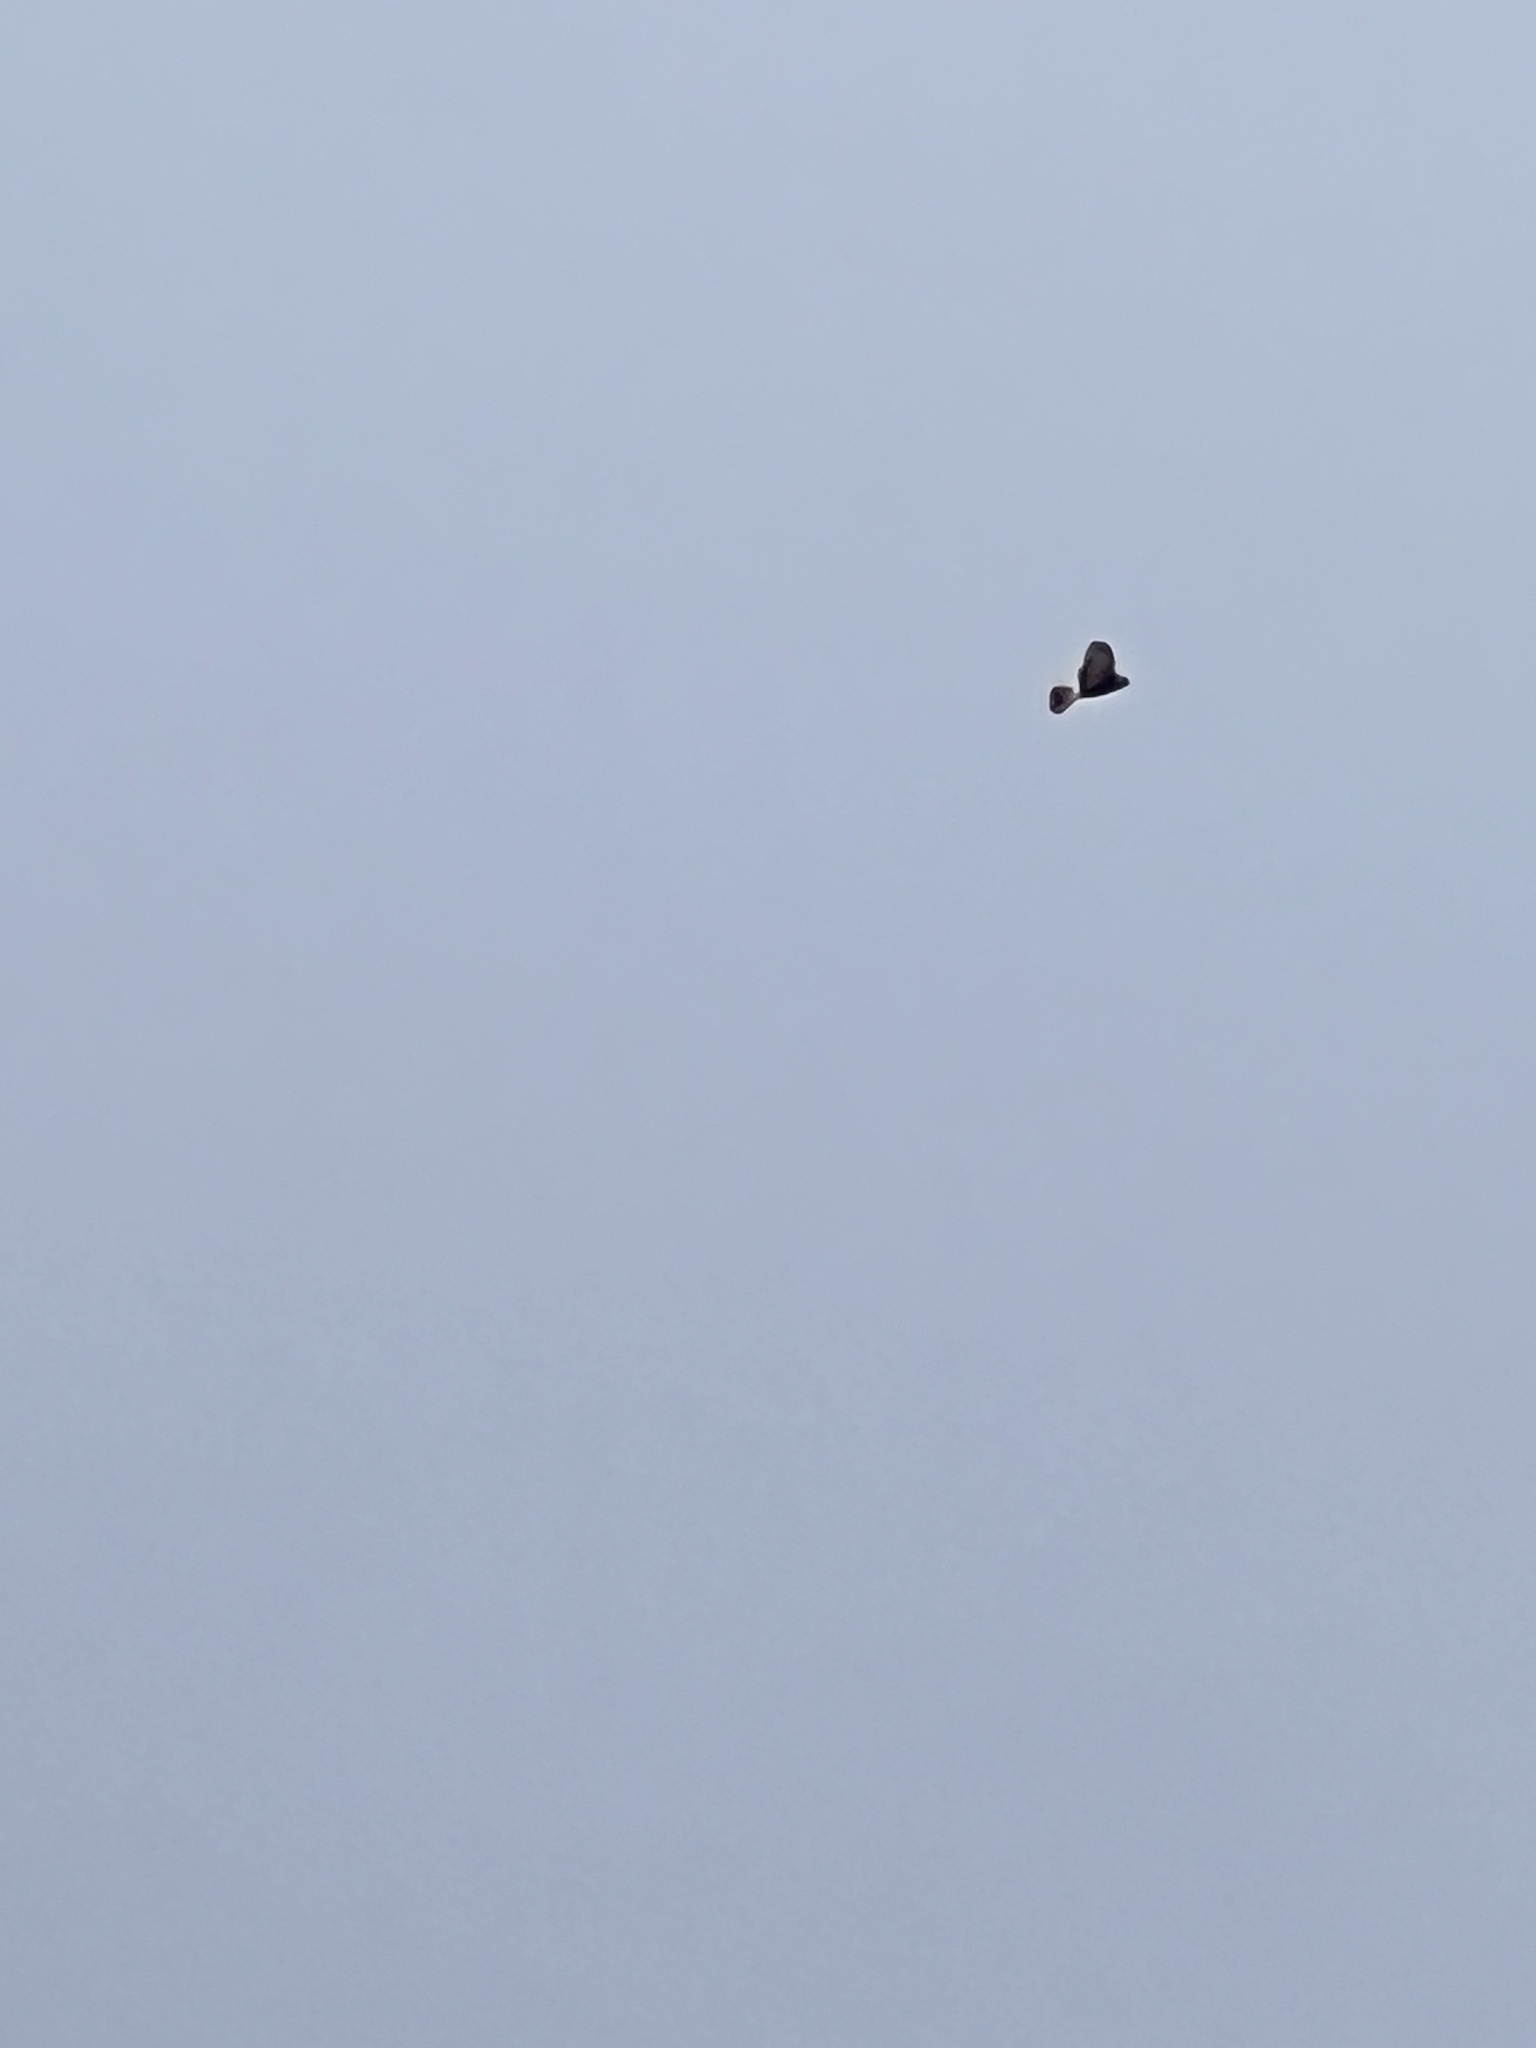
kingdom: Animalia
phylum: Chordata
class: Aves
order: Accipitriformes
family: Accipitridae
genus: Circus
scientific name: Circus approximans
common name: Swamp harrier
